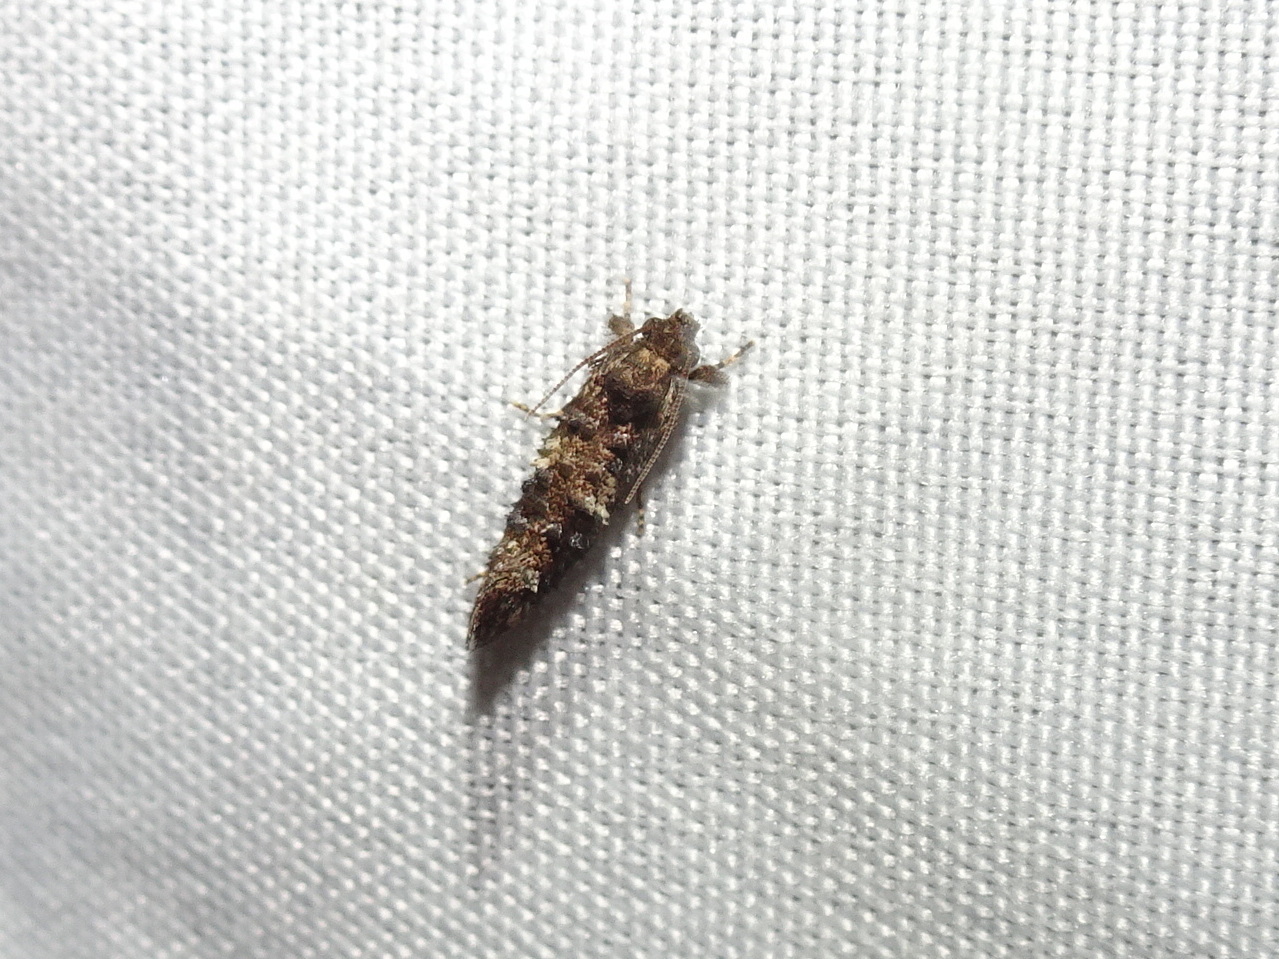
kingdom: Animalia
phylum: Arthropoda
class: Insecta
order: Lepidoptera
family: Tineidae
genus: Acrolophus
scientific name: Acrolophus cressoni
